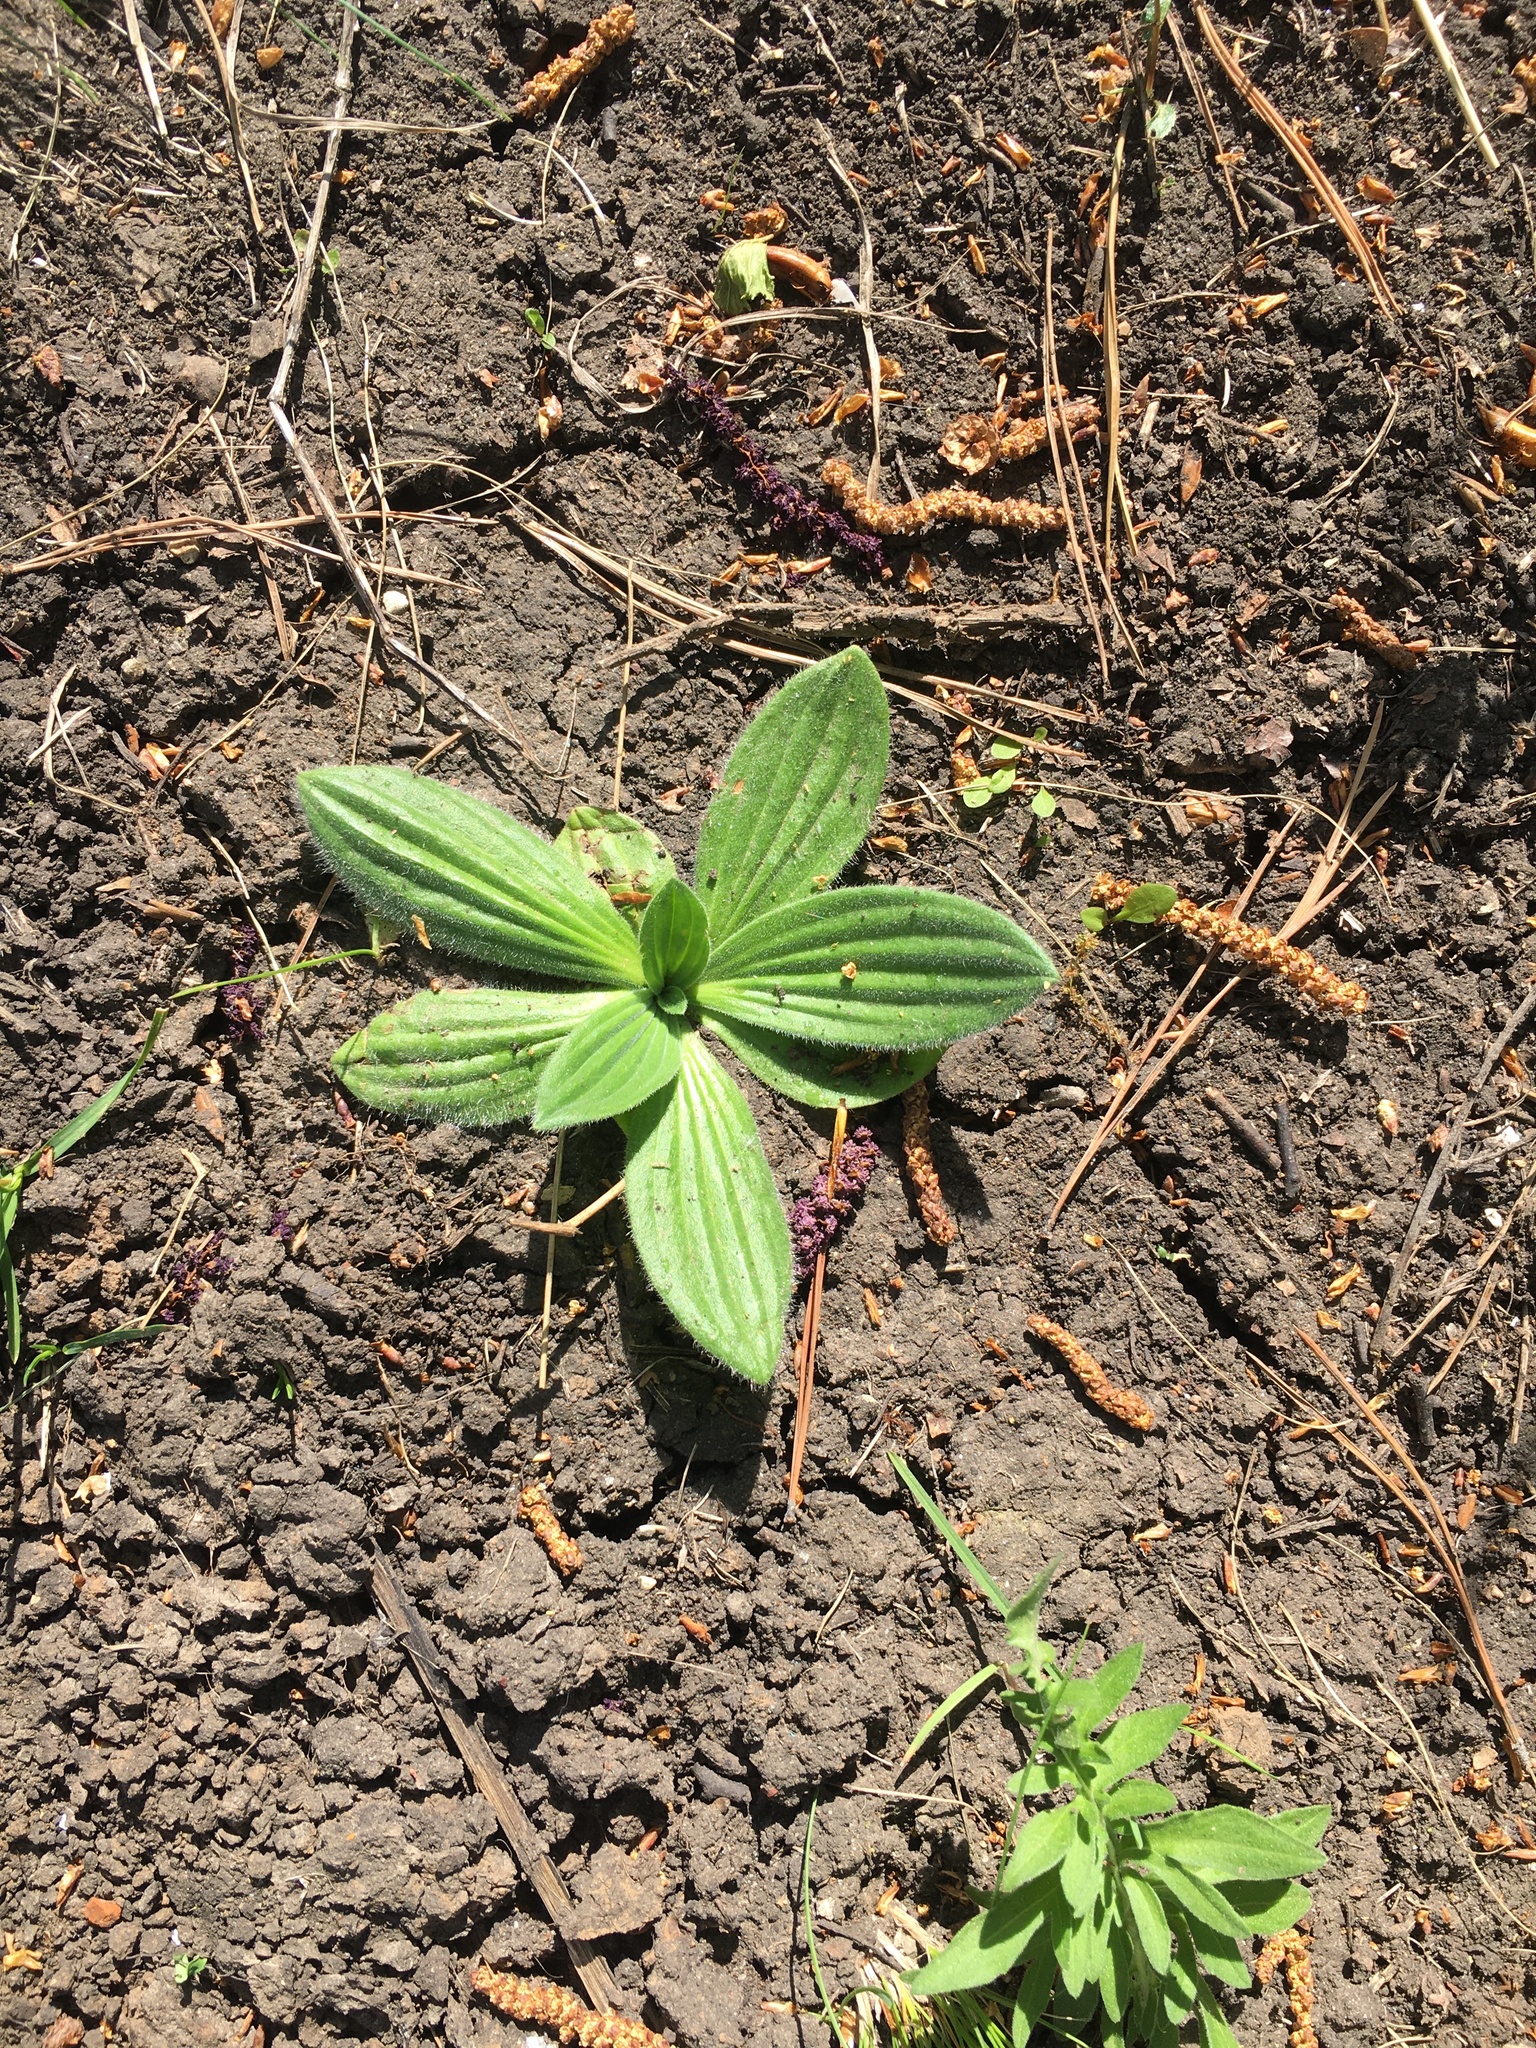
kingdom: Plantae
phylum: Tracheophyta
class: Magnoliopsida
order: Lamiales
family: Plantaginaceae
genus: Plantago
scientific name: Plantago urvillei
